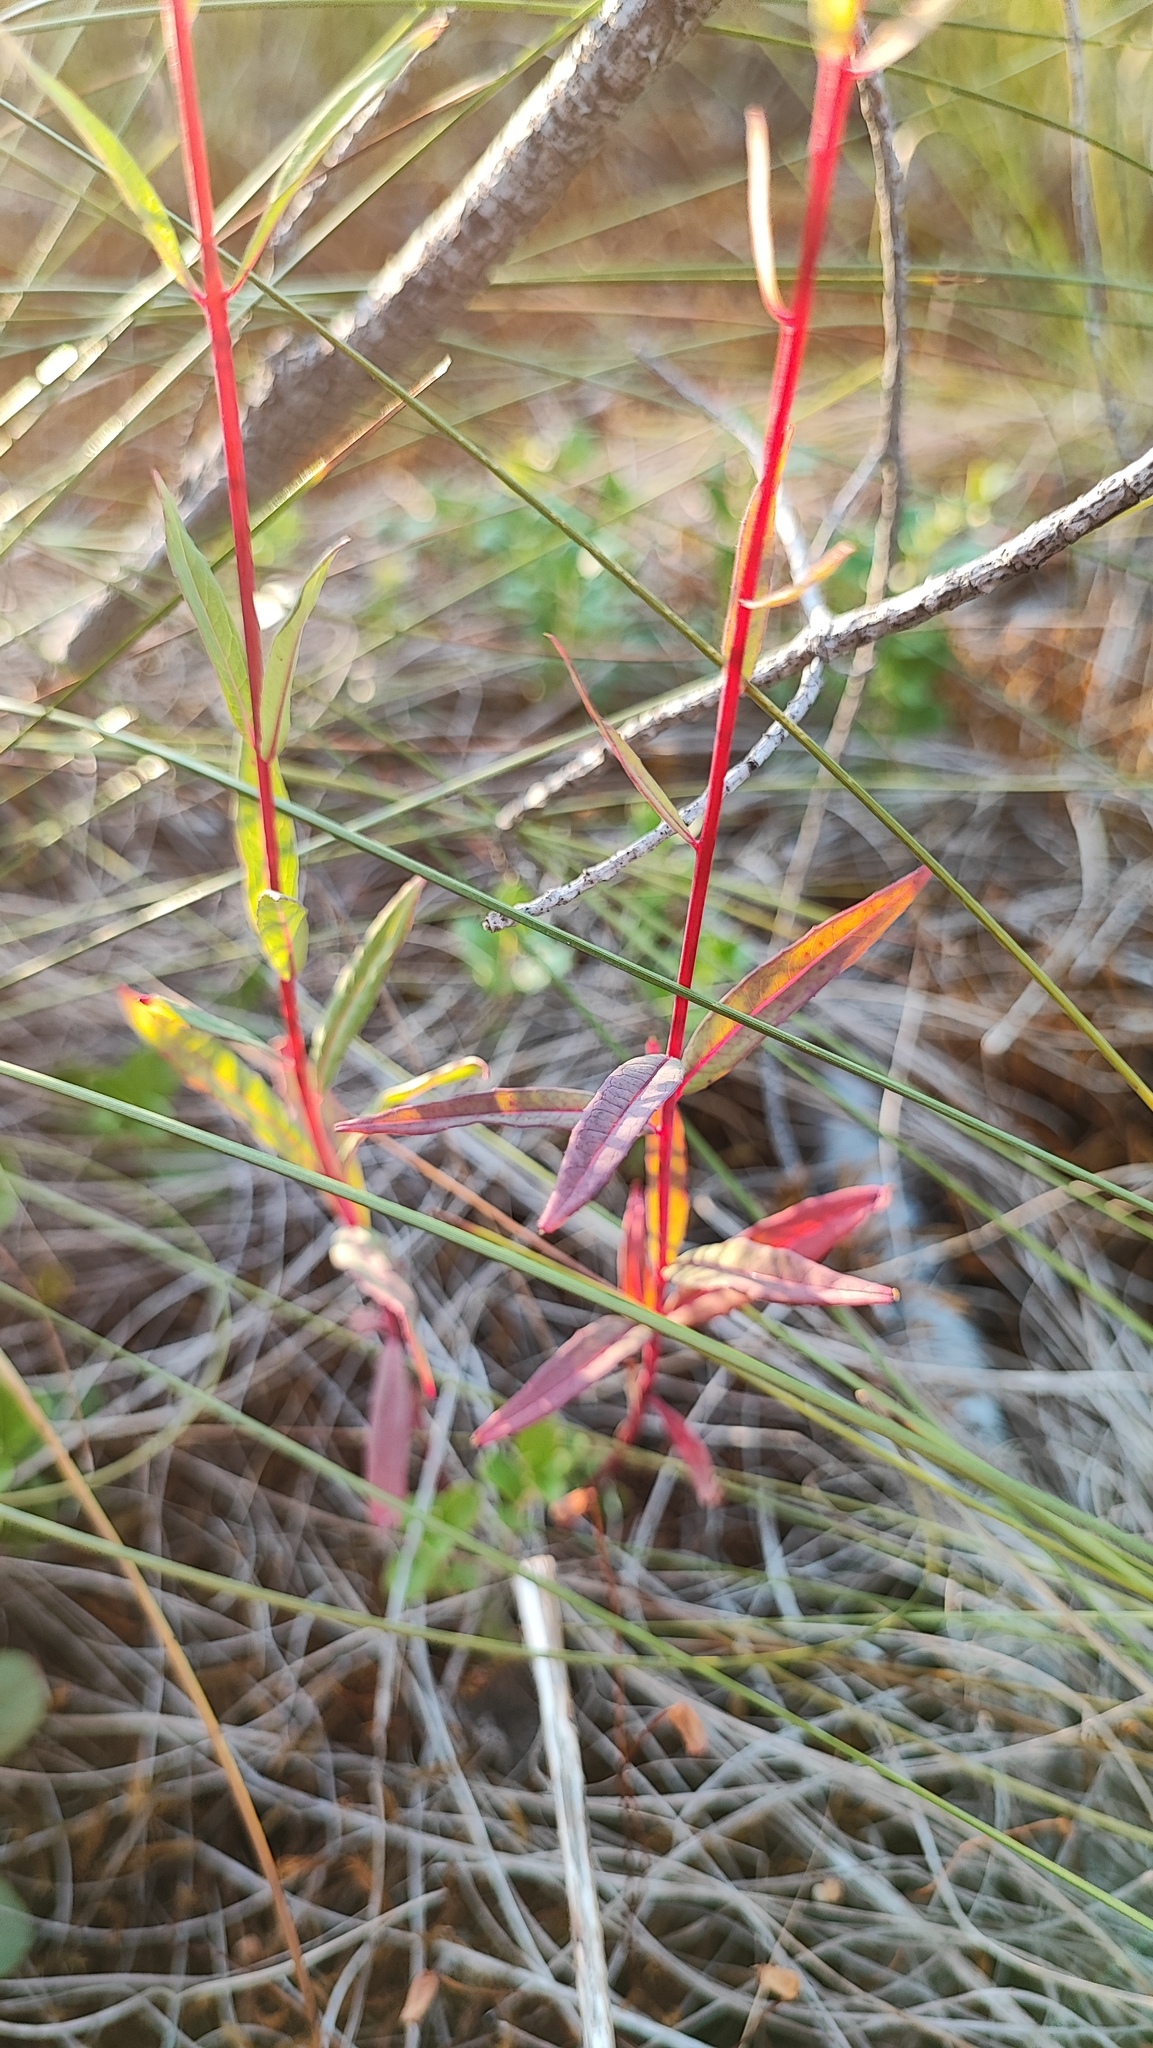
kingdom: Plantae
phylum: Tracheophyta
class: Magnoliopsida
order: Myrtales
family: Onagraceae
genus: Chamaenerion
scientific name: Chamaenerion angustifolium
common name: Fireweed
